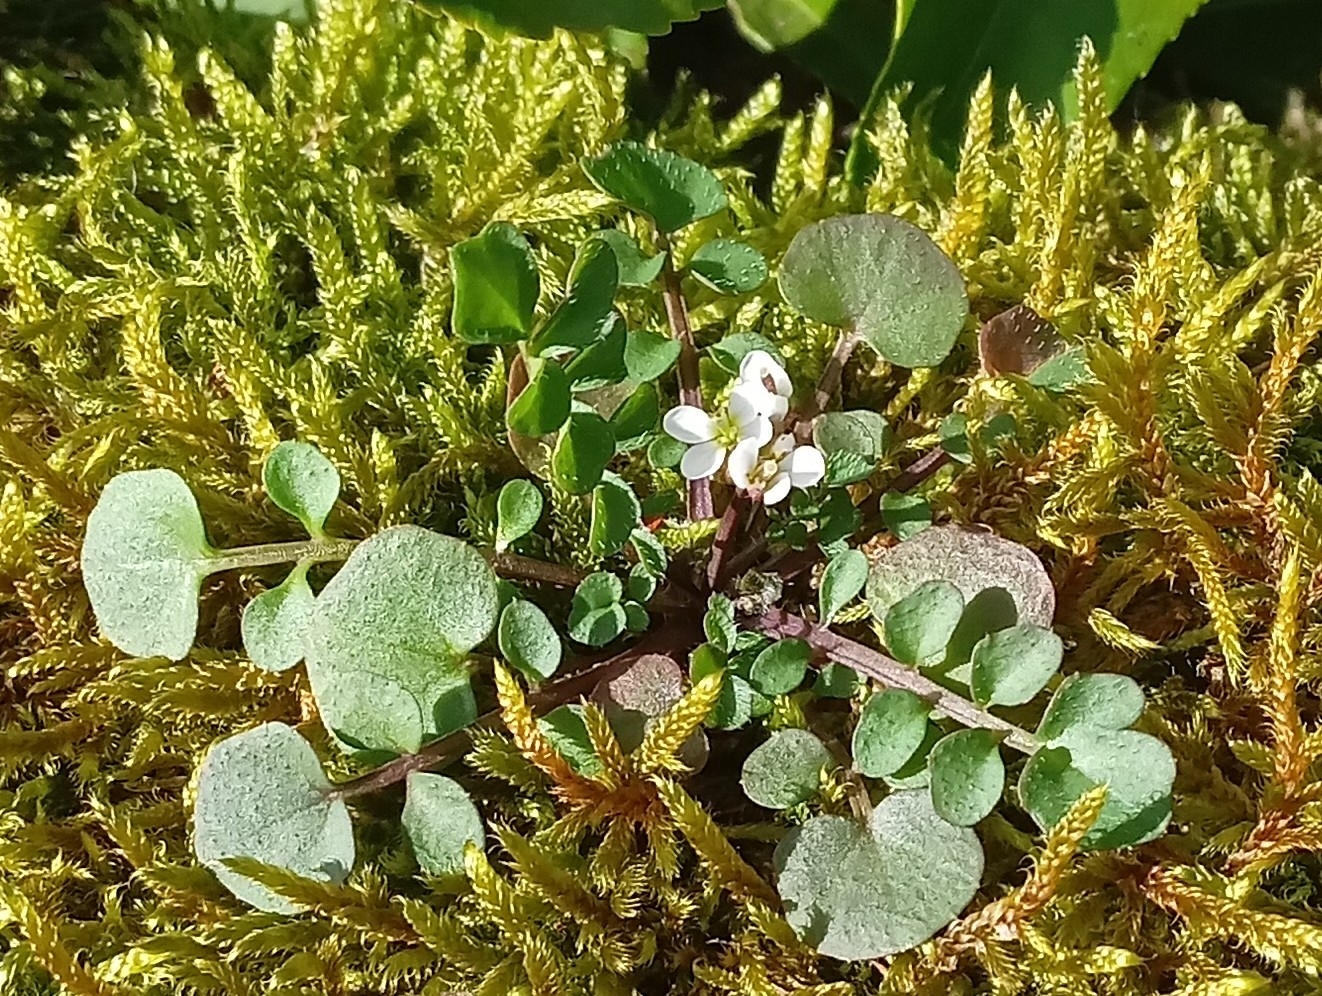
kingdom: Plantae
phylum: Tracheophyta
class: Magnoliopsida
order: Brassicales
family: Brassicaceae
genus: Cardamine
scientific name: Cardamine hirsuta
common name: Hairy bittercress
